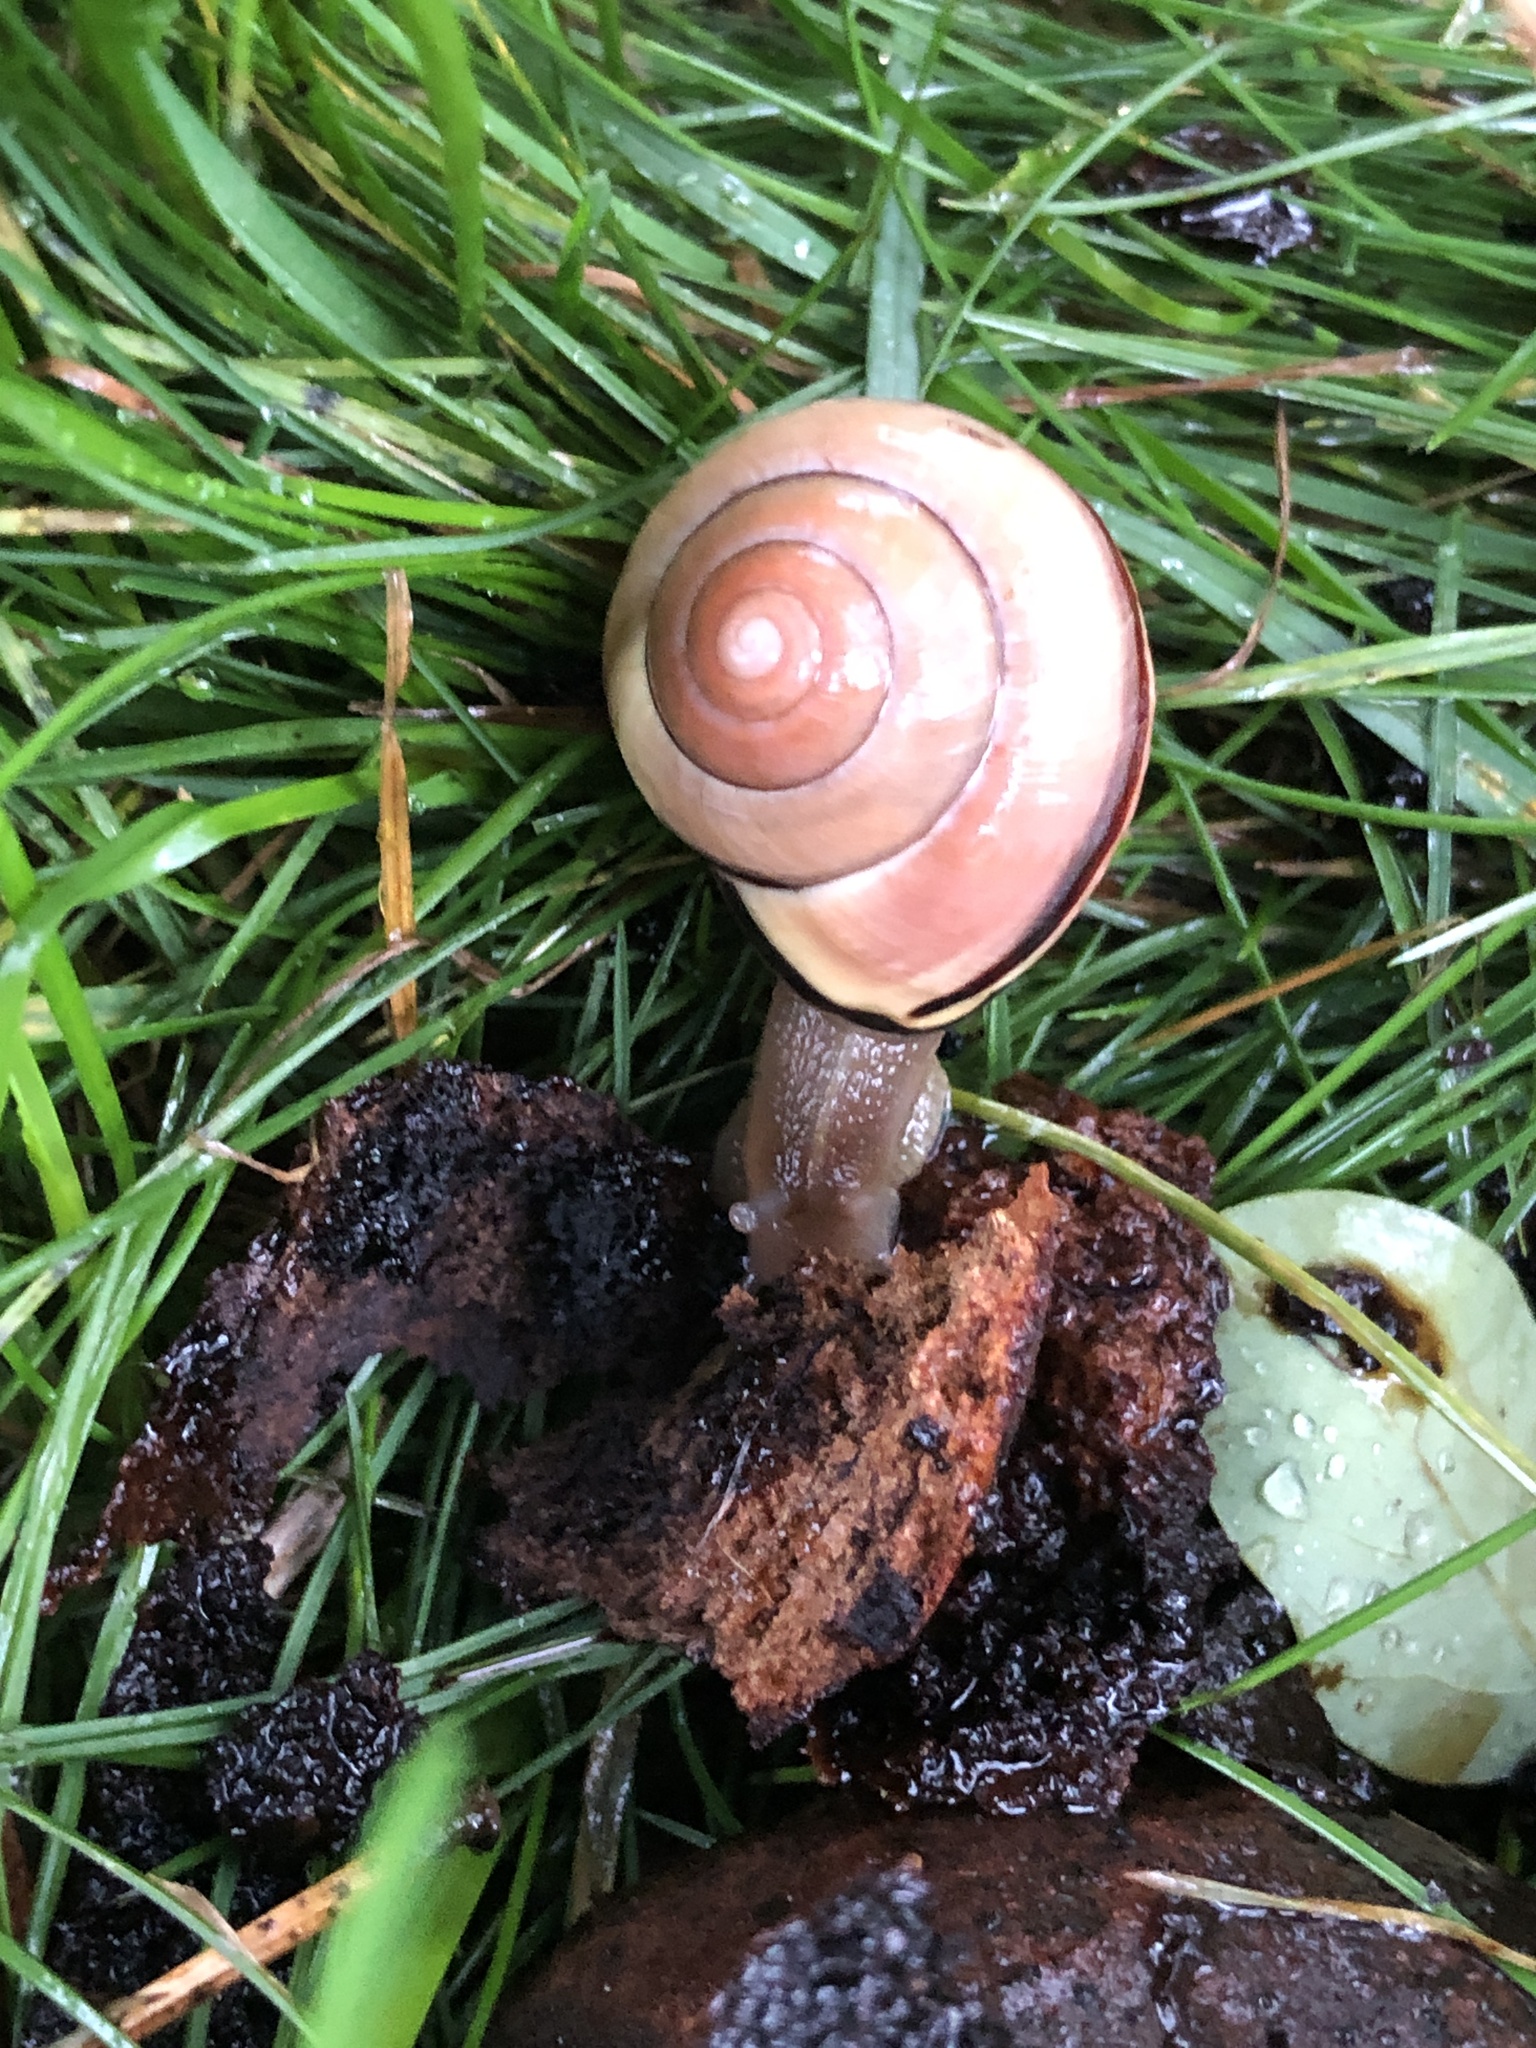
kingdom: Animalia
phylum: Mollusca
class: Gastropoda
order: Stylommatophora
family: Helicidae
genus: Cepaea
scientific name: Cepaea nemoralis
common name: Grovesnail
